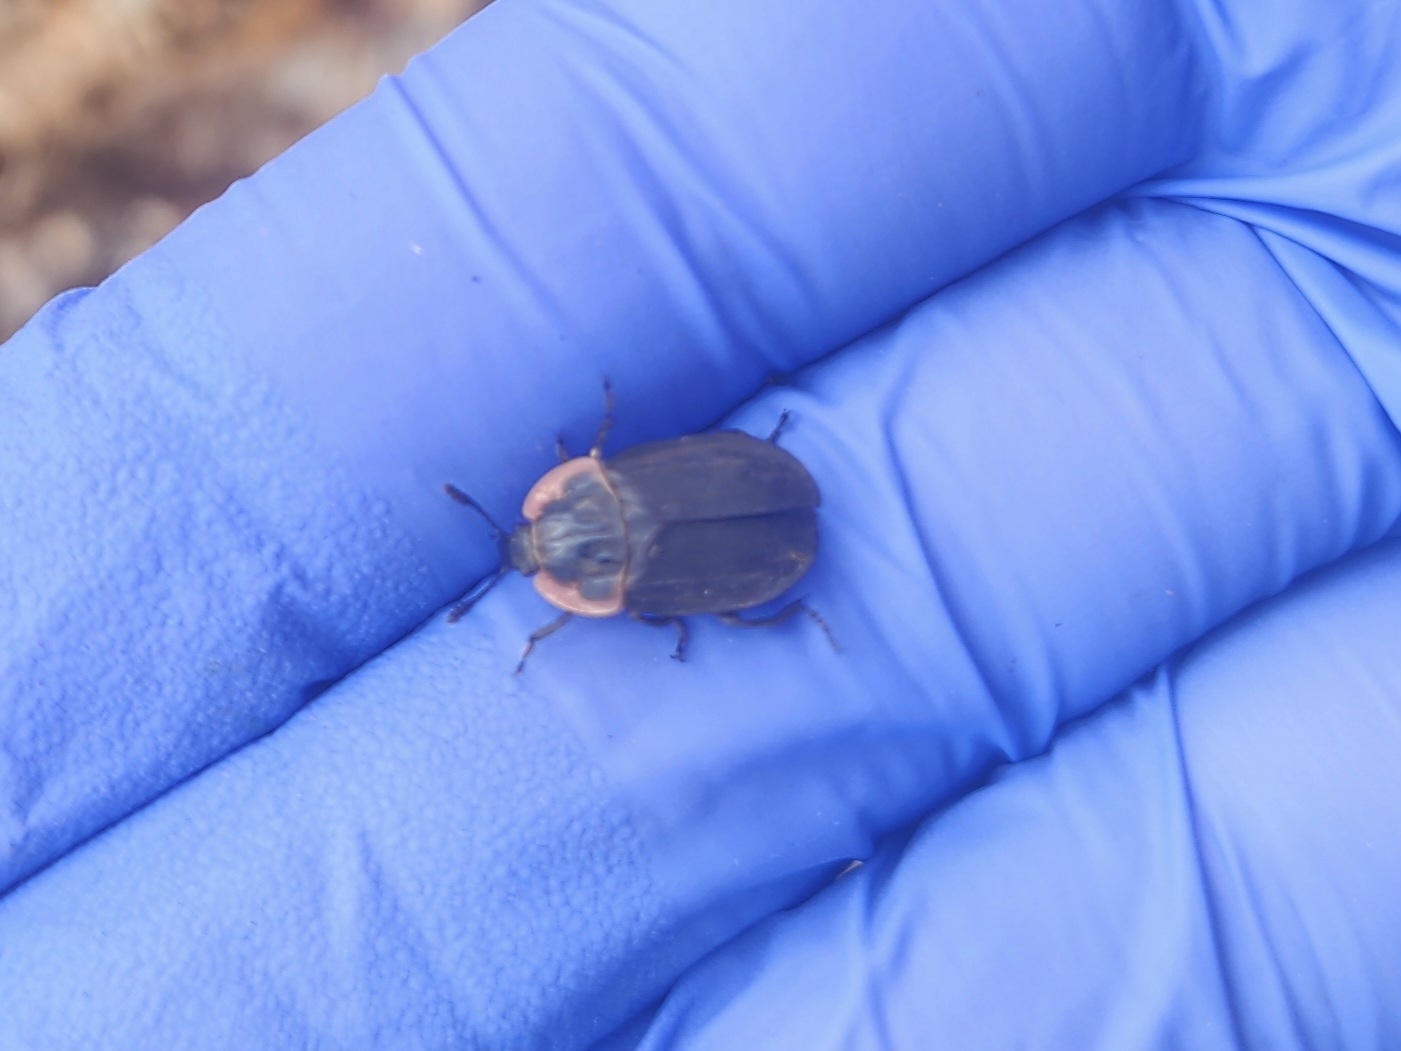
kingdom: Animalia
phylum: Arthropoda
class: Insecta
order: Coleoptera
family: Staphylinidae
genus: Oiceoptoma
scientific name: Oiceoptoma noveboracense
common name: Margined carrion beetle
